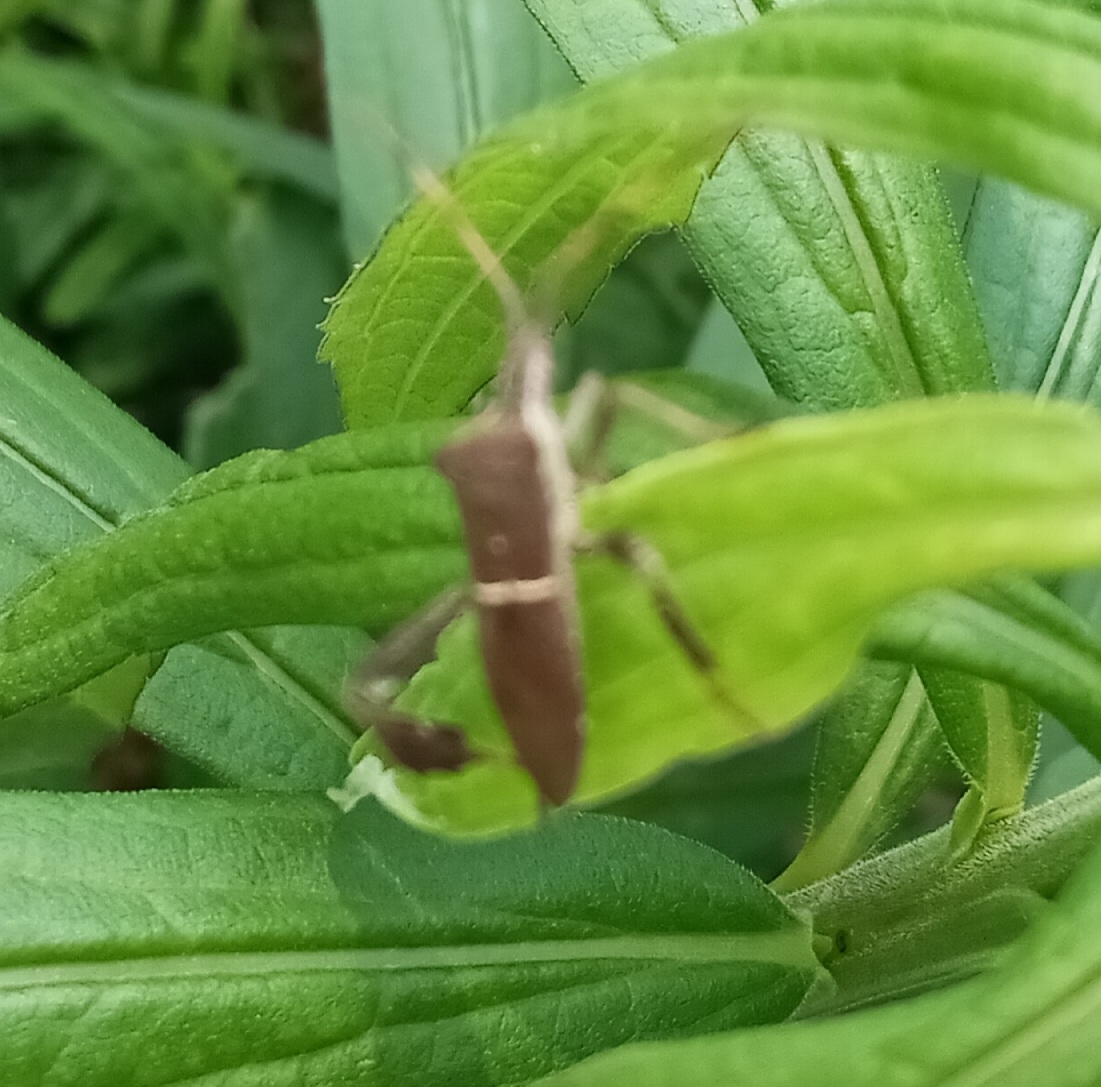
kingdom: Animalia
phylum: Arthropoda
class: Insecta
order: Hemiptera
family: Coreidae
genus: Leptoglossus
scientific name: Leptoglossus phyllopus
